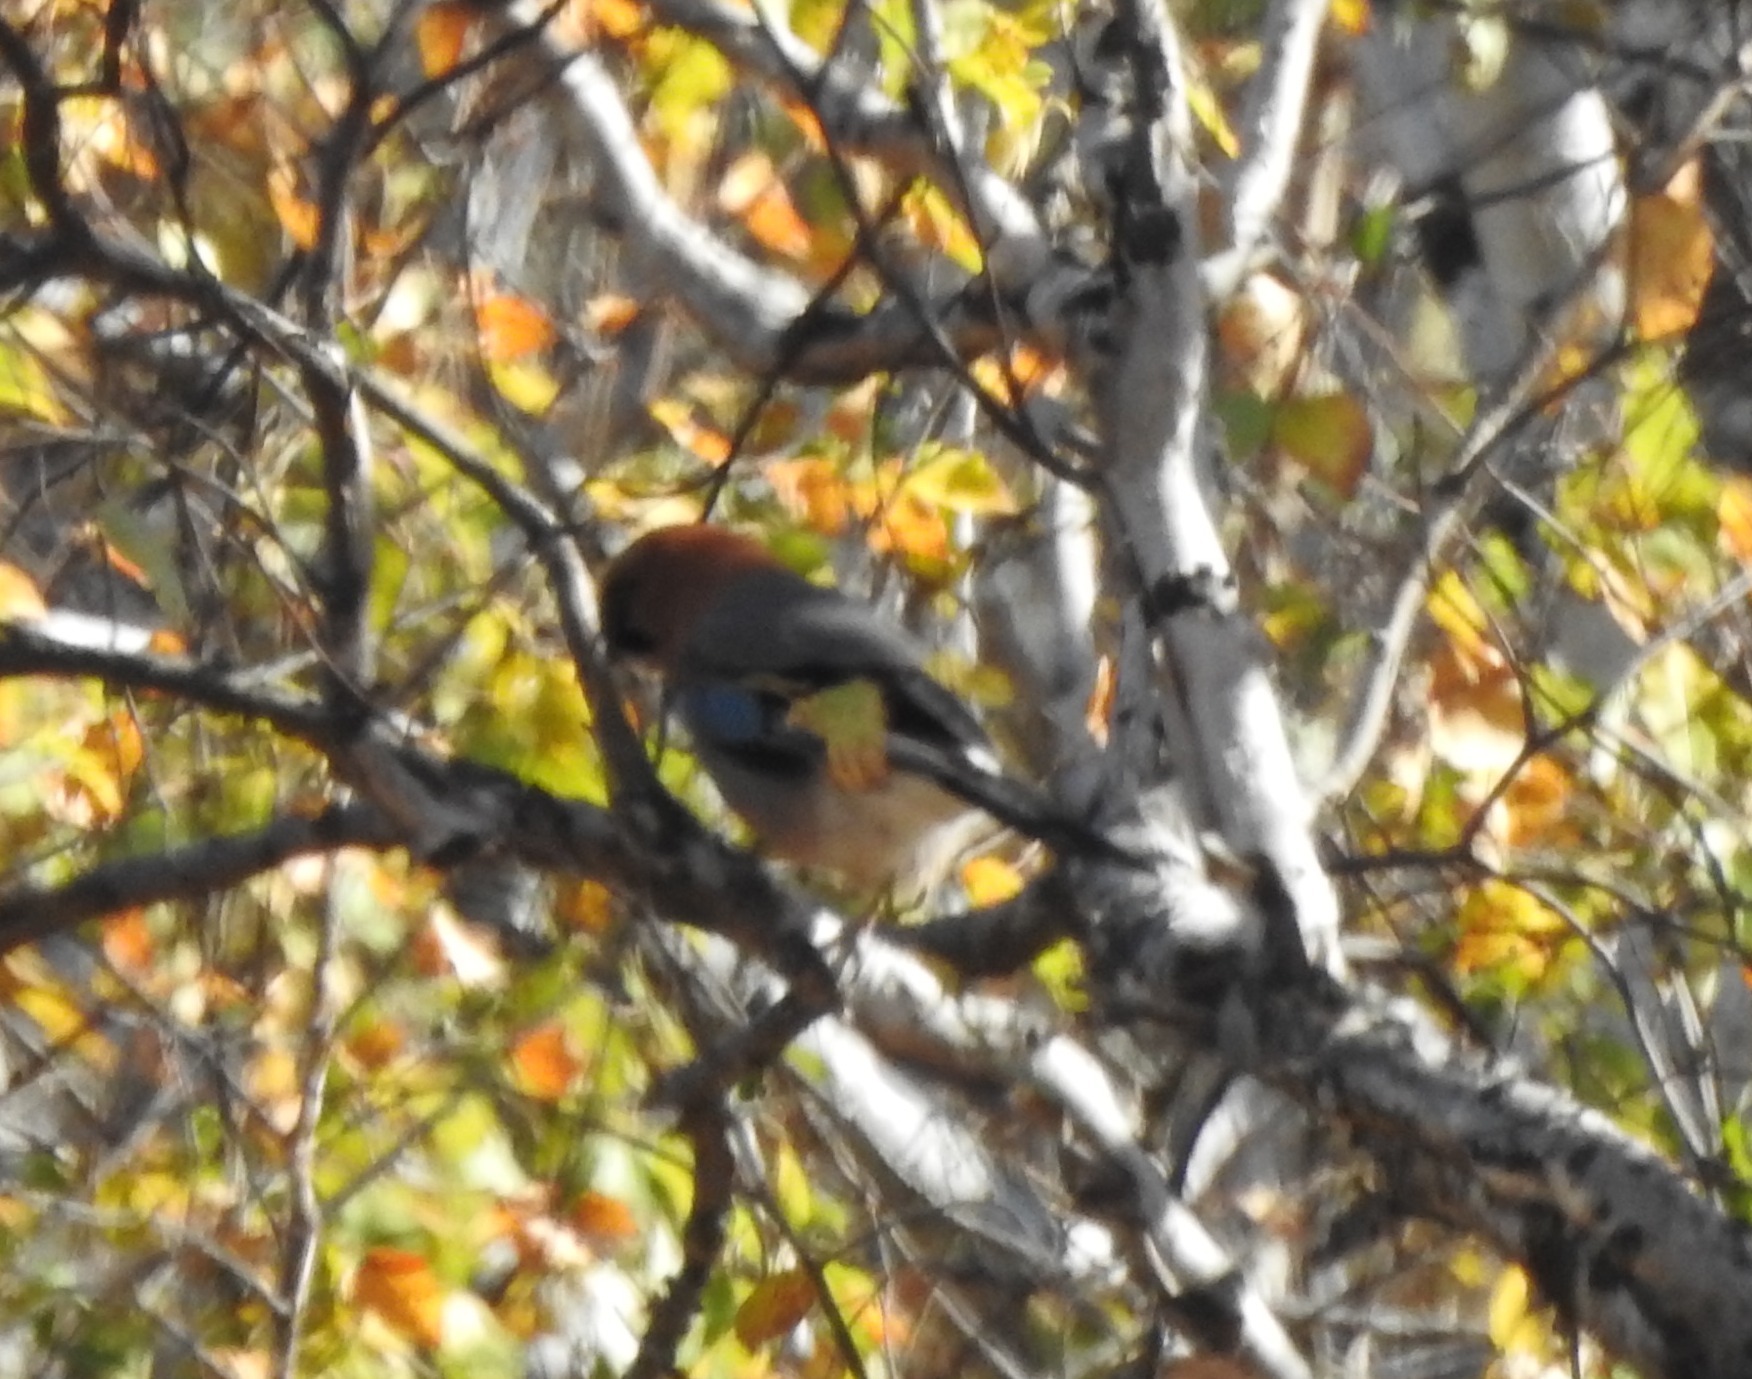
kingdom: Animalia
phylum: Chordata
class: Aves
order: Passeriformes
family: Corvidae
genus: Garrulus
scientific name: Garrulus glandarius
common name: Eurasian jay
